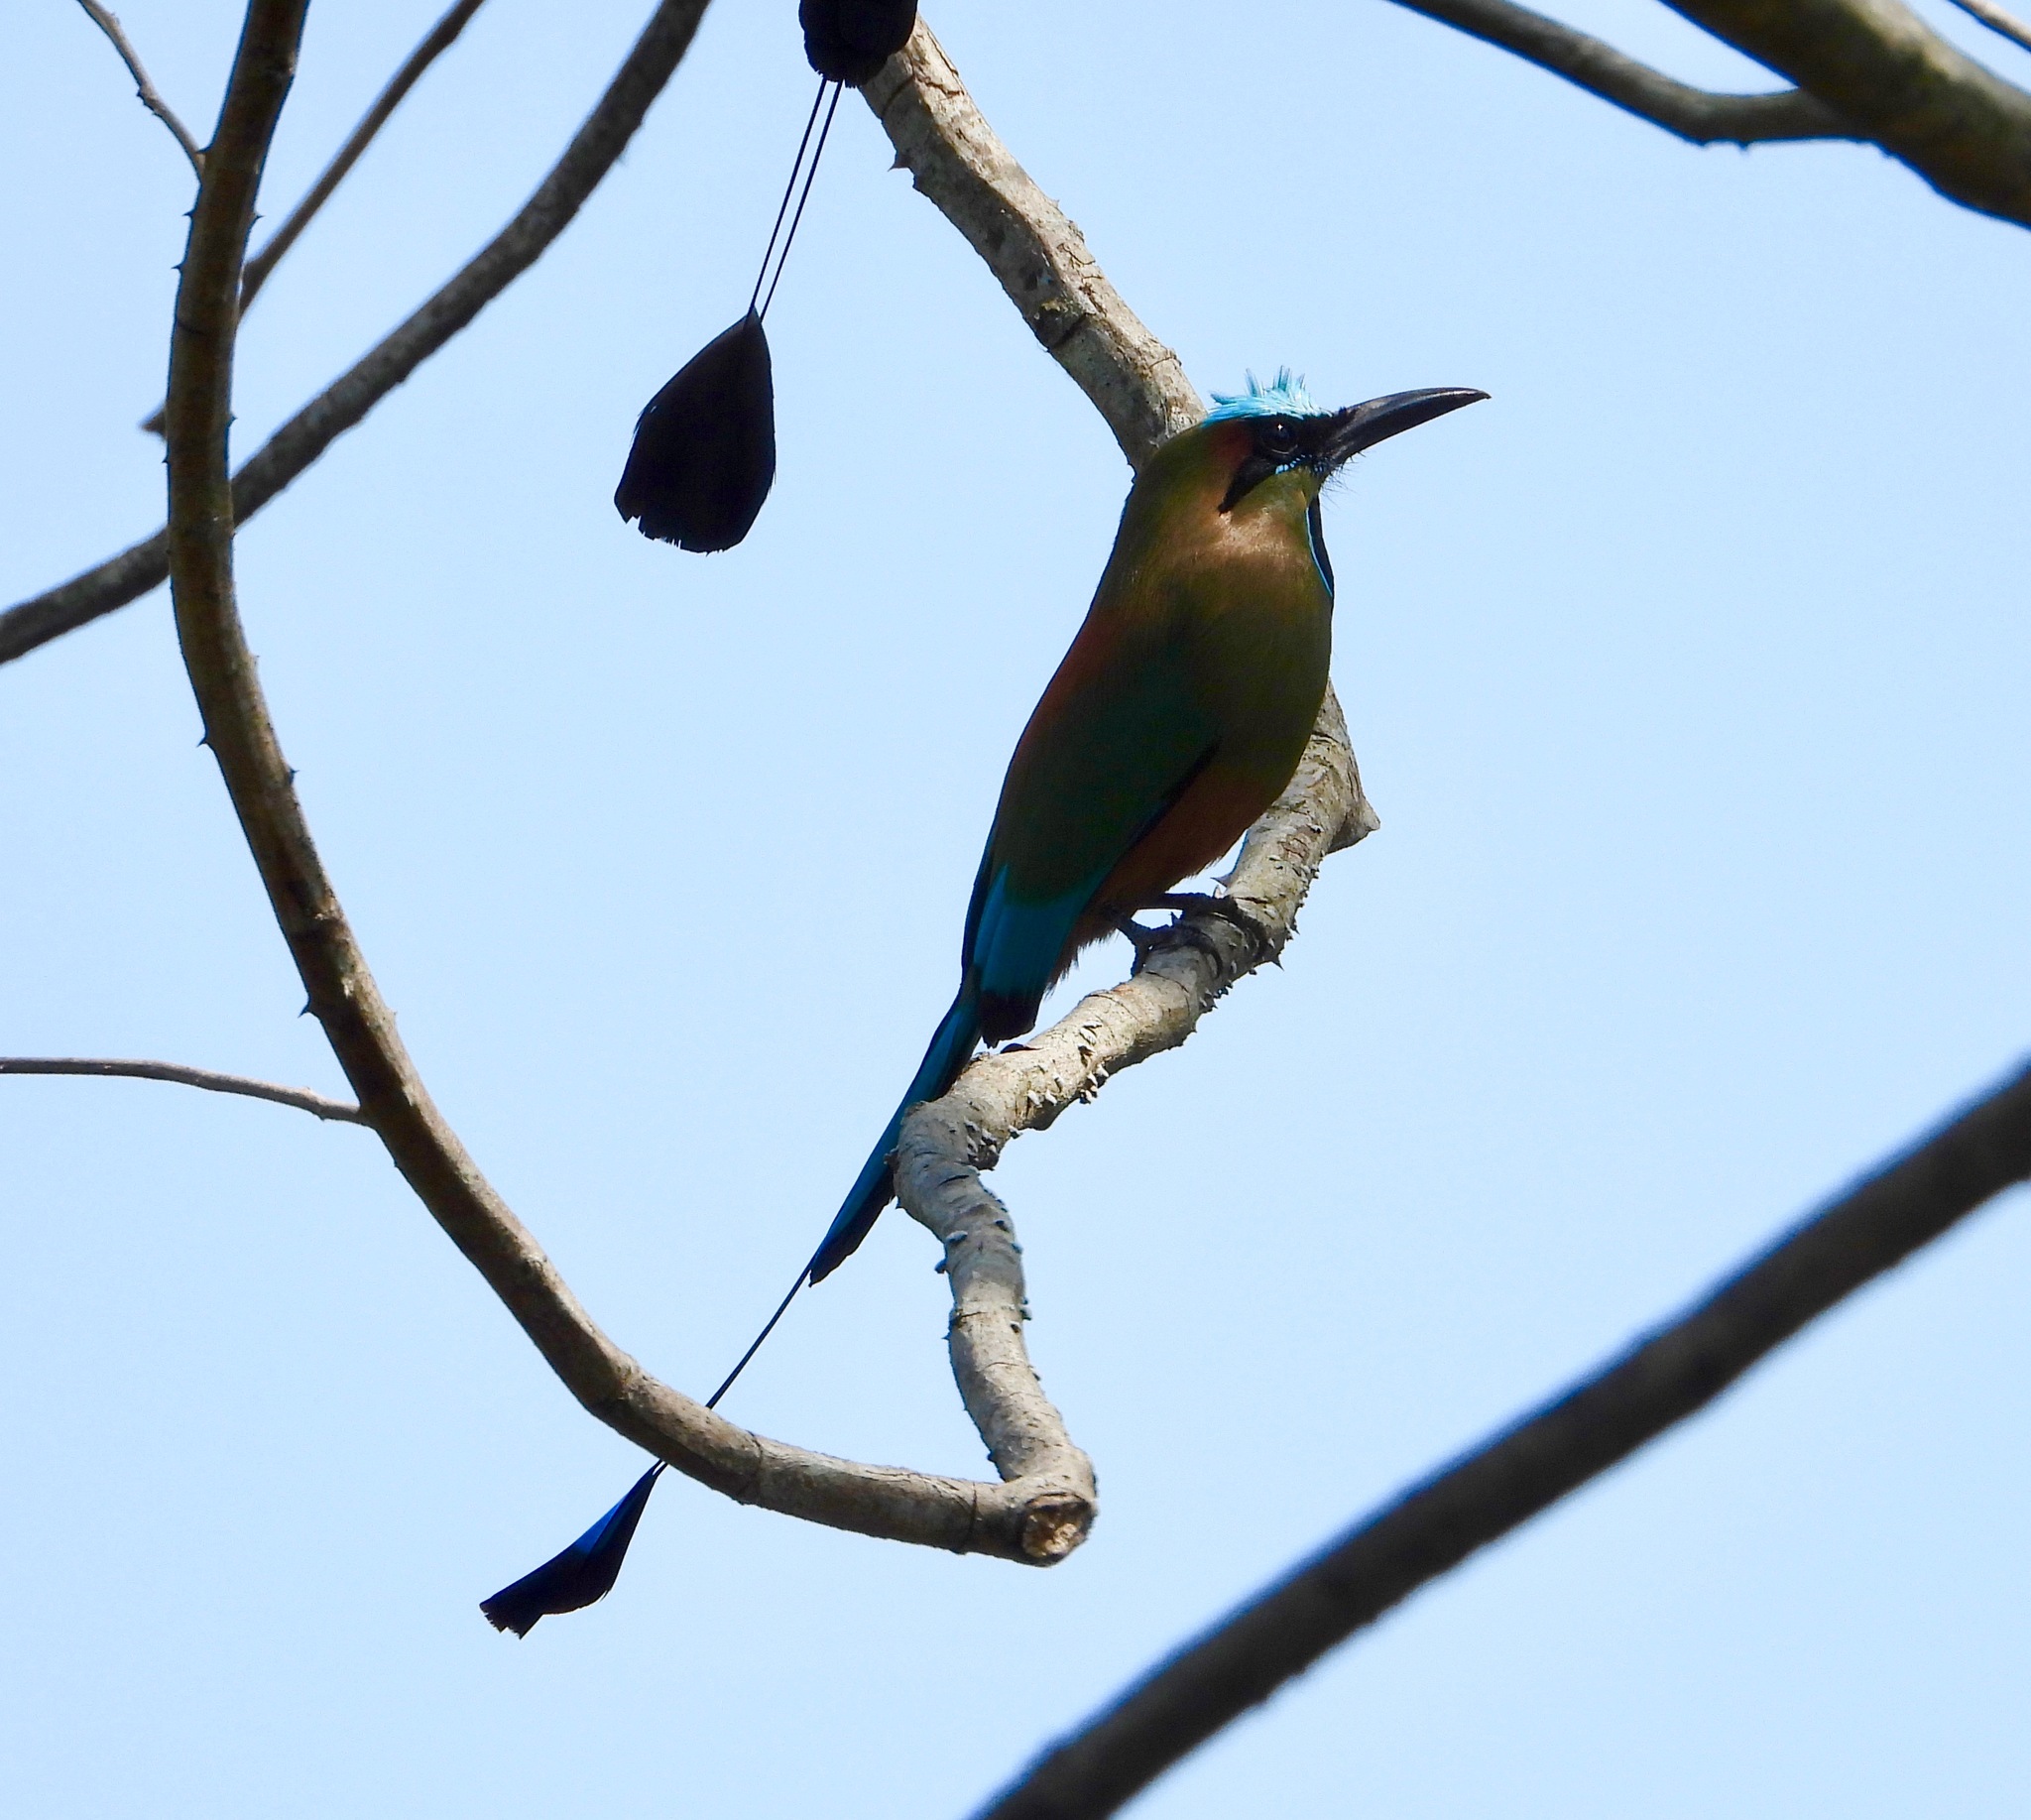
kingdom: Animalia
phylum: Chordata
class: Aves
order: Coraciiformes
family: Momotidae
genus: Eumomota
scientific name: Eumomota superciliosa
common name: Turquoise-browed motmot
